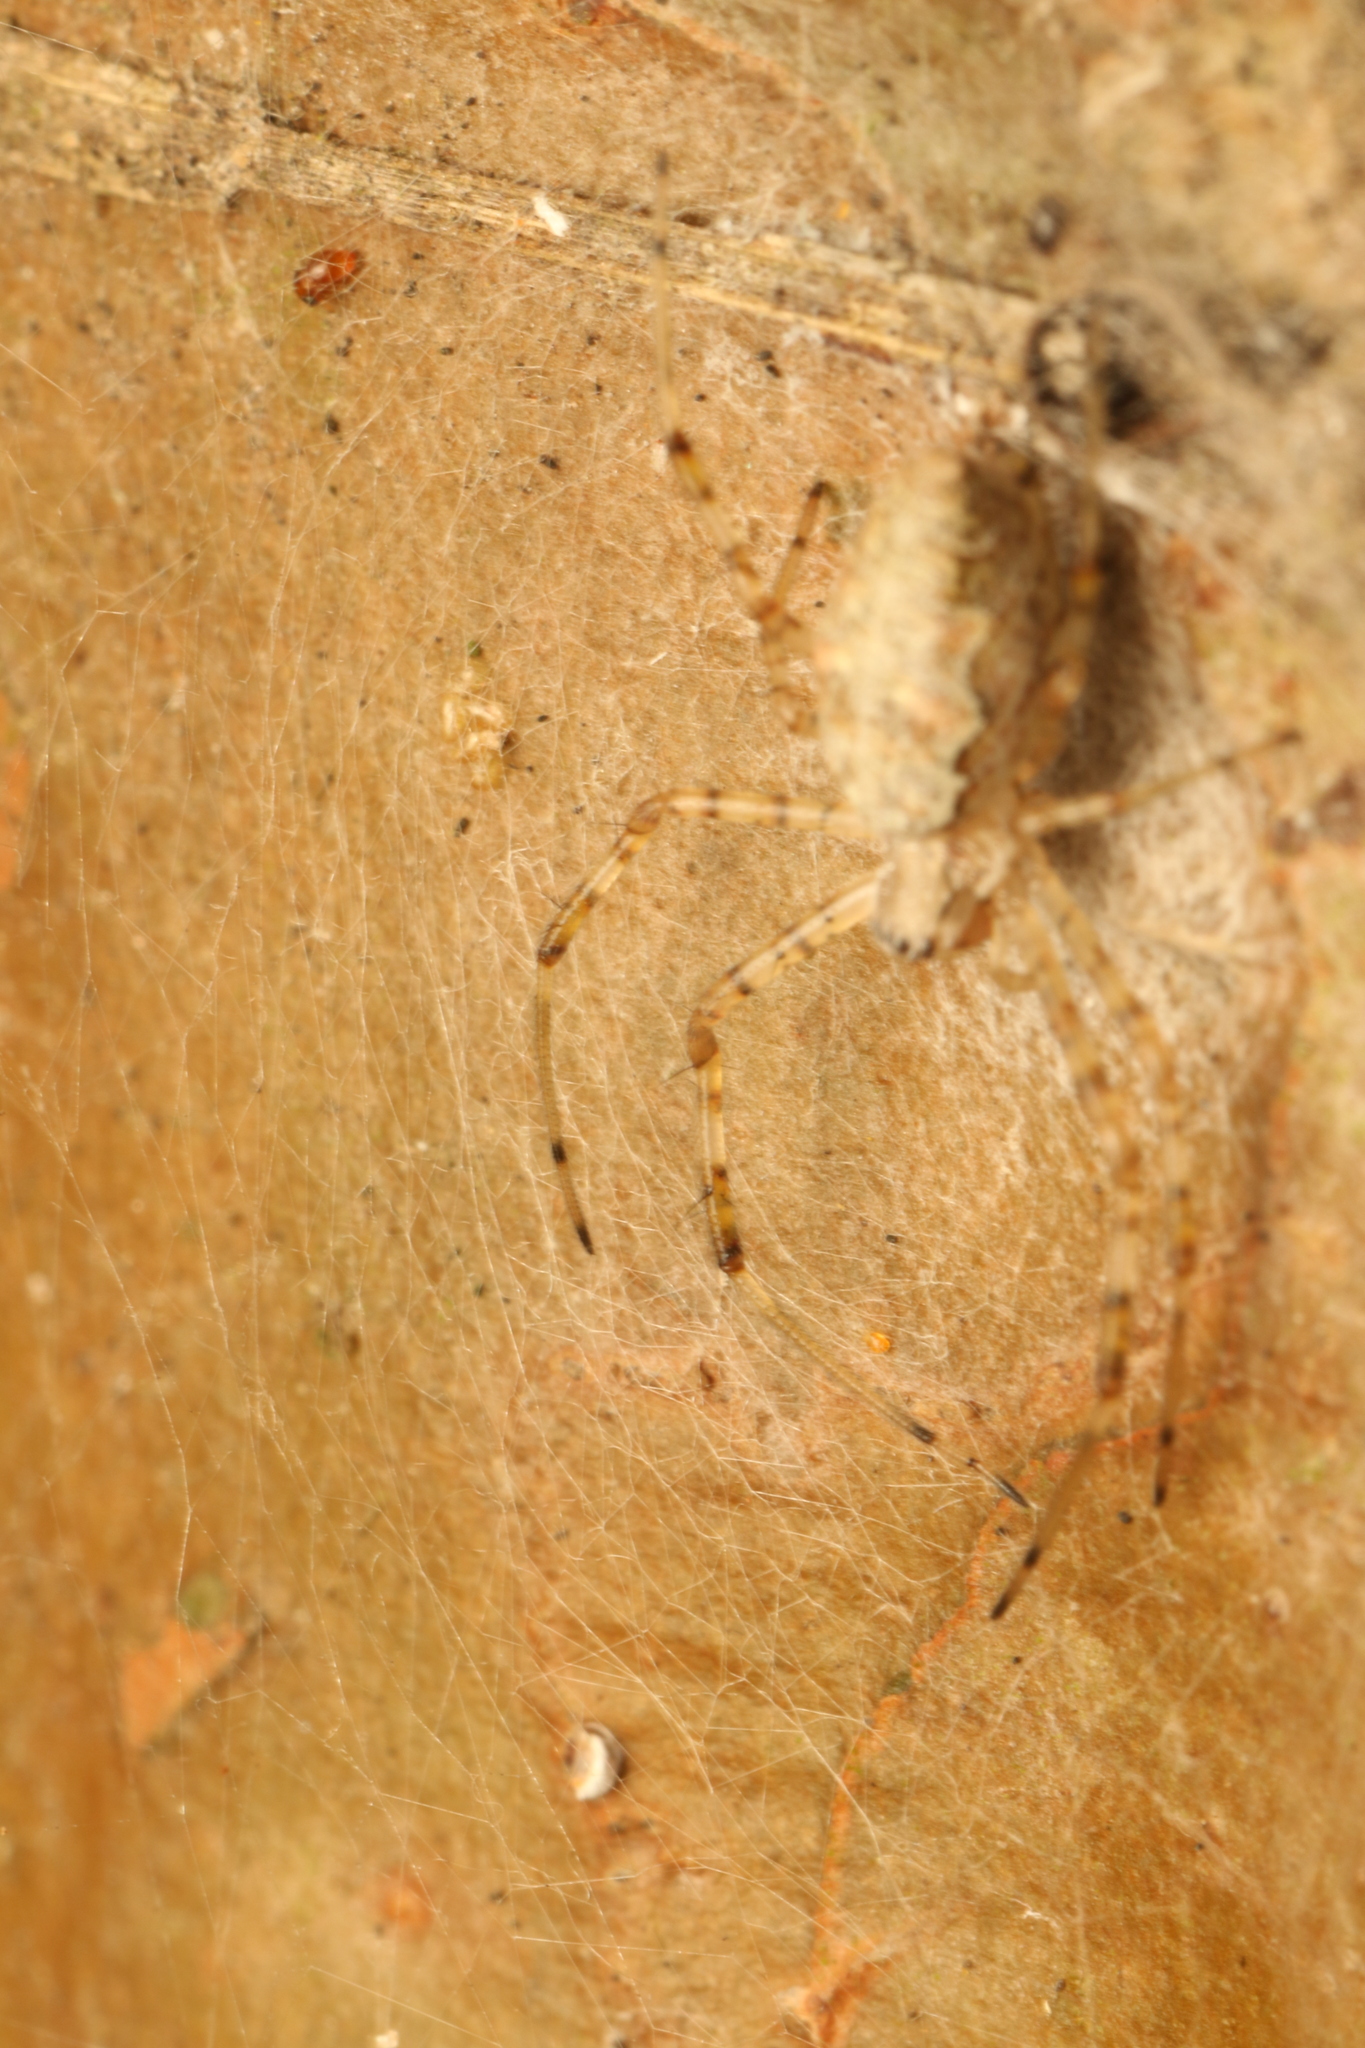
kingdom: Animalia
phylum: Arthropoda
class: Arachnida
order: Araneae
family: Araneidae
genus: Nephilingis
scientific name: Nephilingis cruentata
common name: African hermit spider
